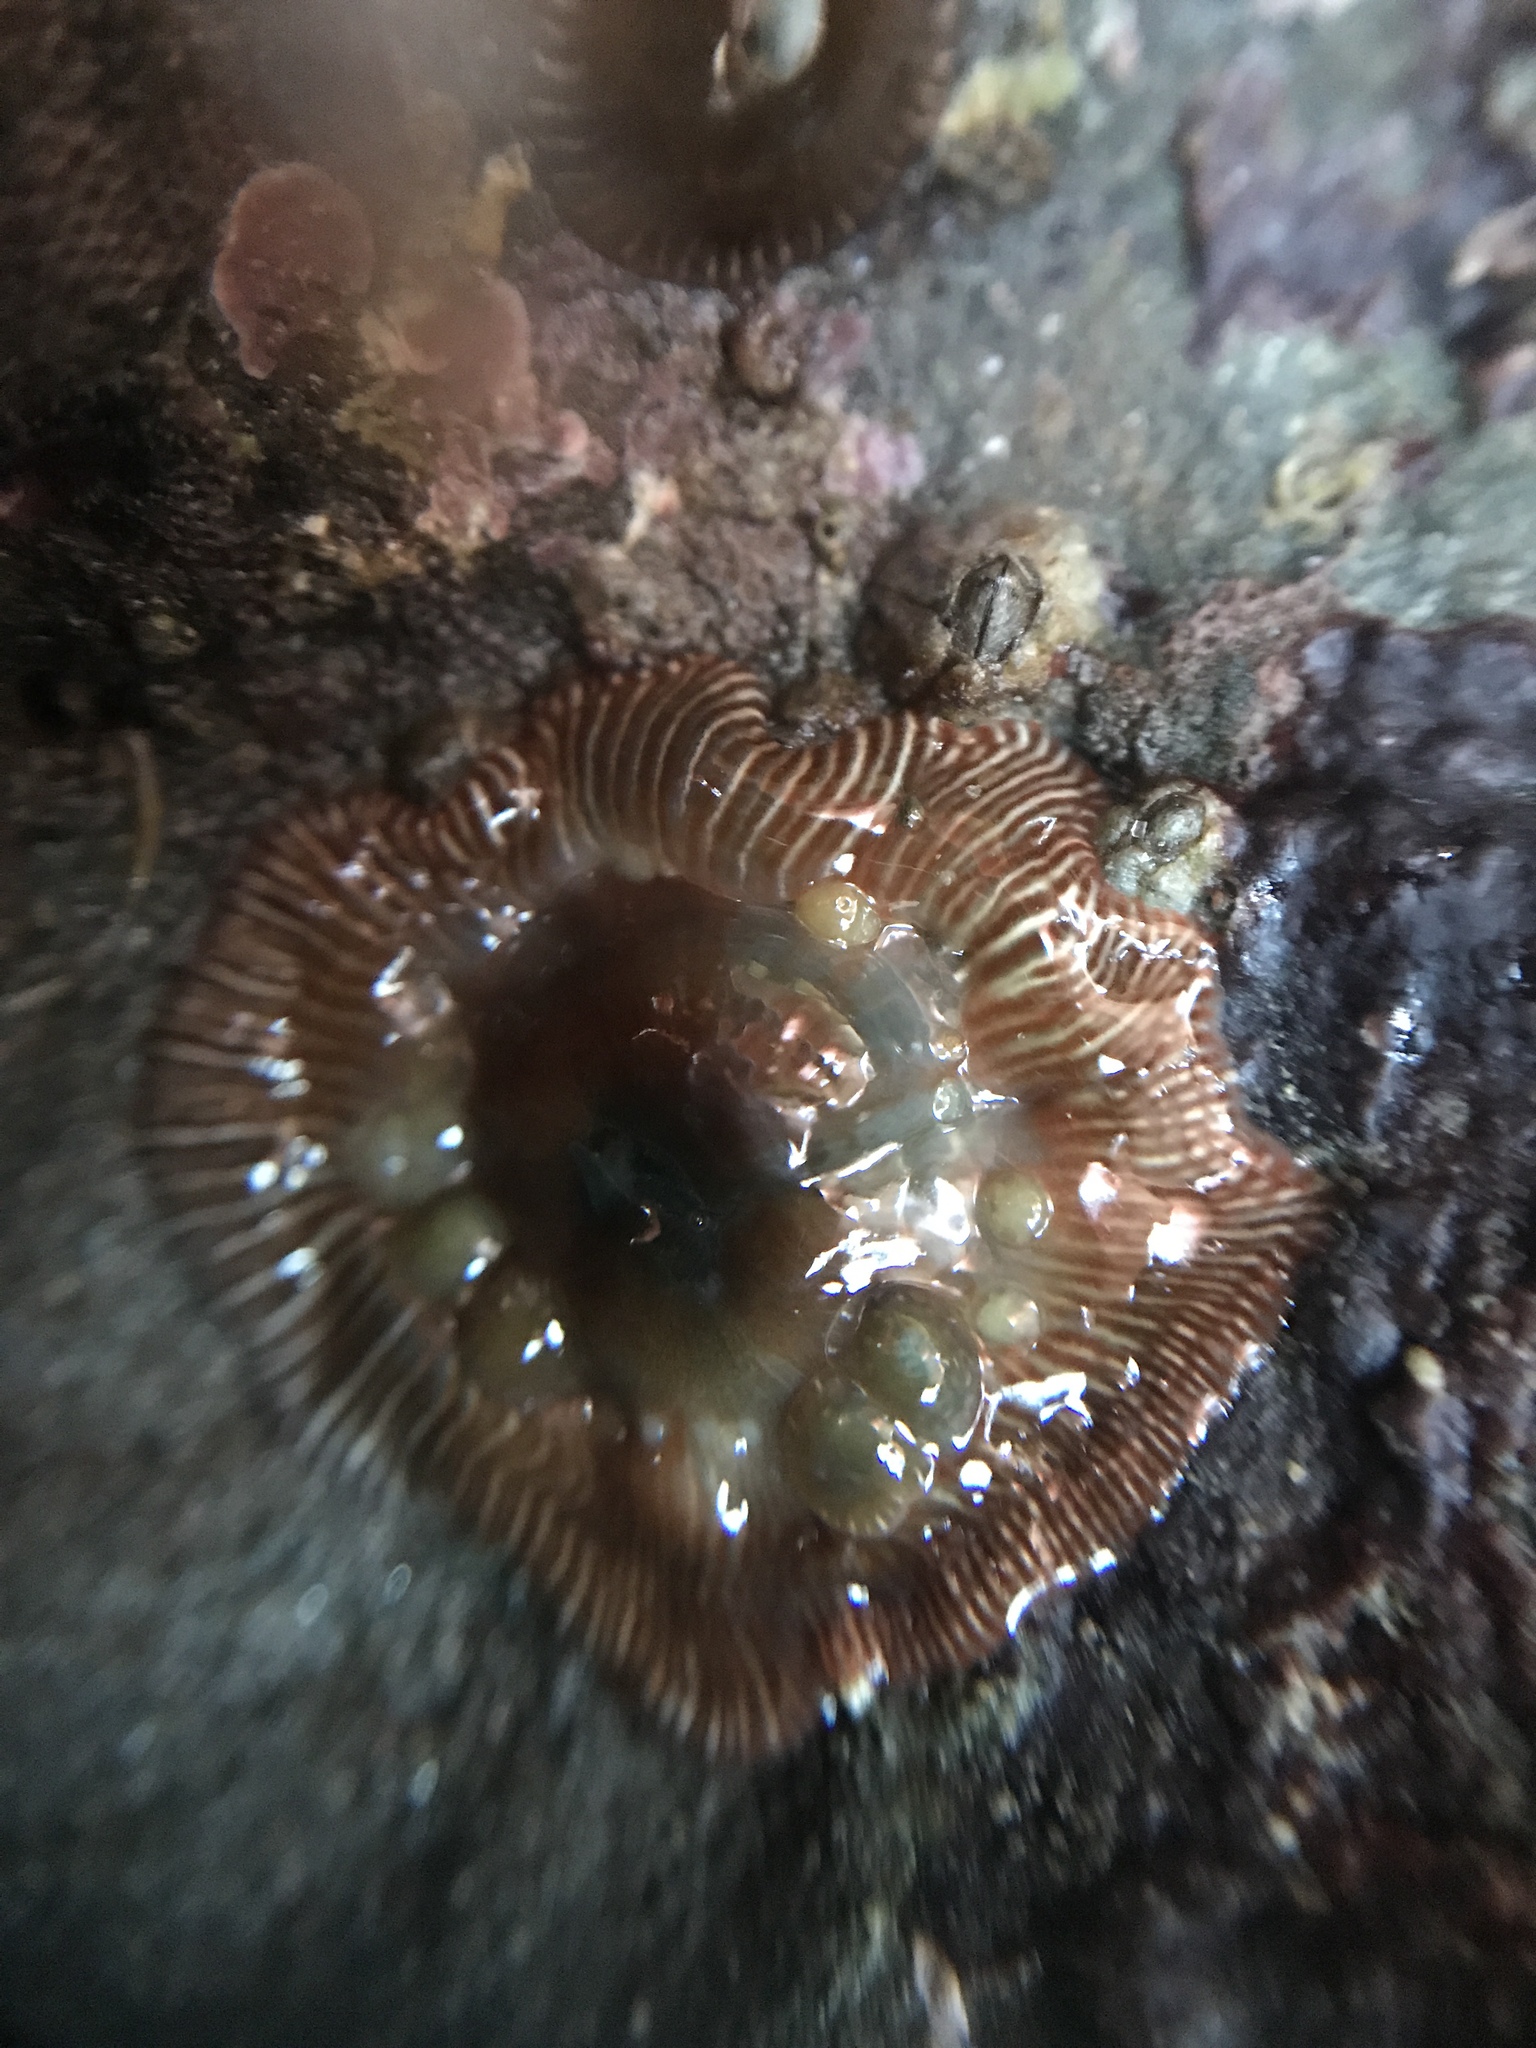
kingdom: Animalia
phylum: Cnidaria
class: Anthozoa
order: Actiniaria
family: Actiniidae
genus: Epiactis
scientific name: Epiactis prolifera
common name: Brooding anemone
